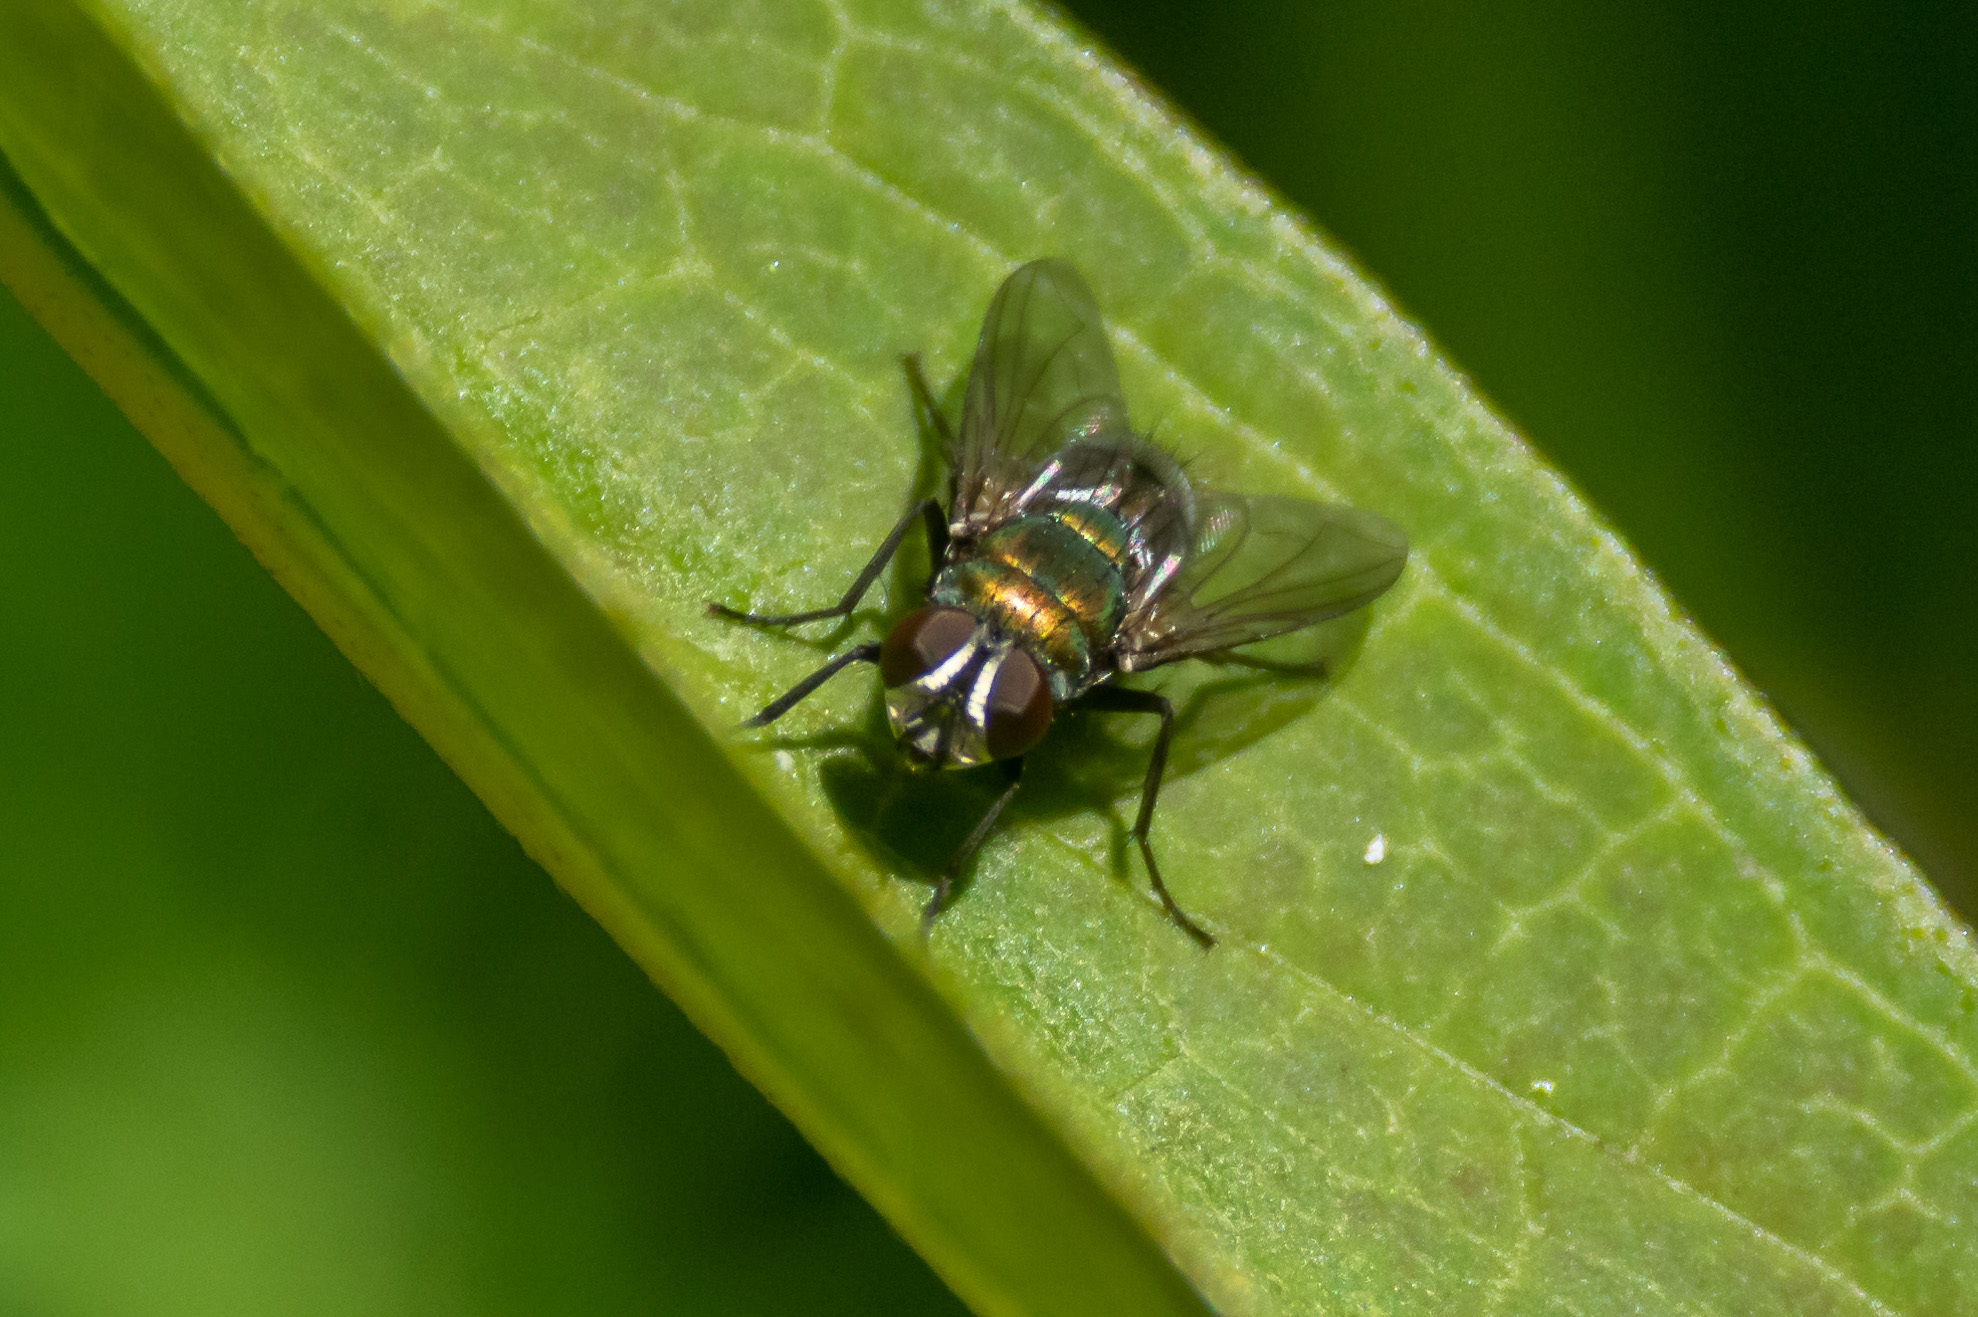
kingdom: Animalia
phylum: Arthropoda
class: Insecta
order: Diptera
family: Calliphoridae
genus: Lucilia
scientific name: Lucilia cuprina
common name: Sheep blow fly
